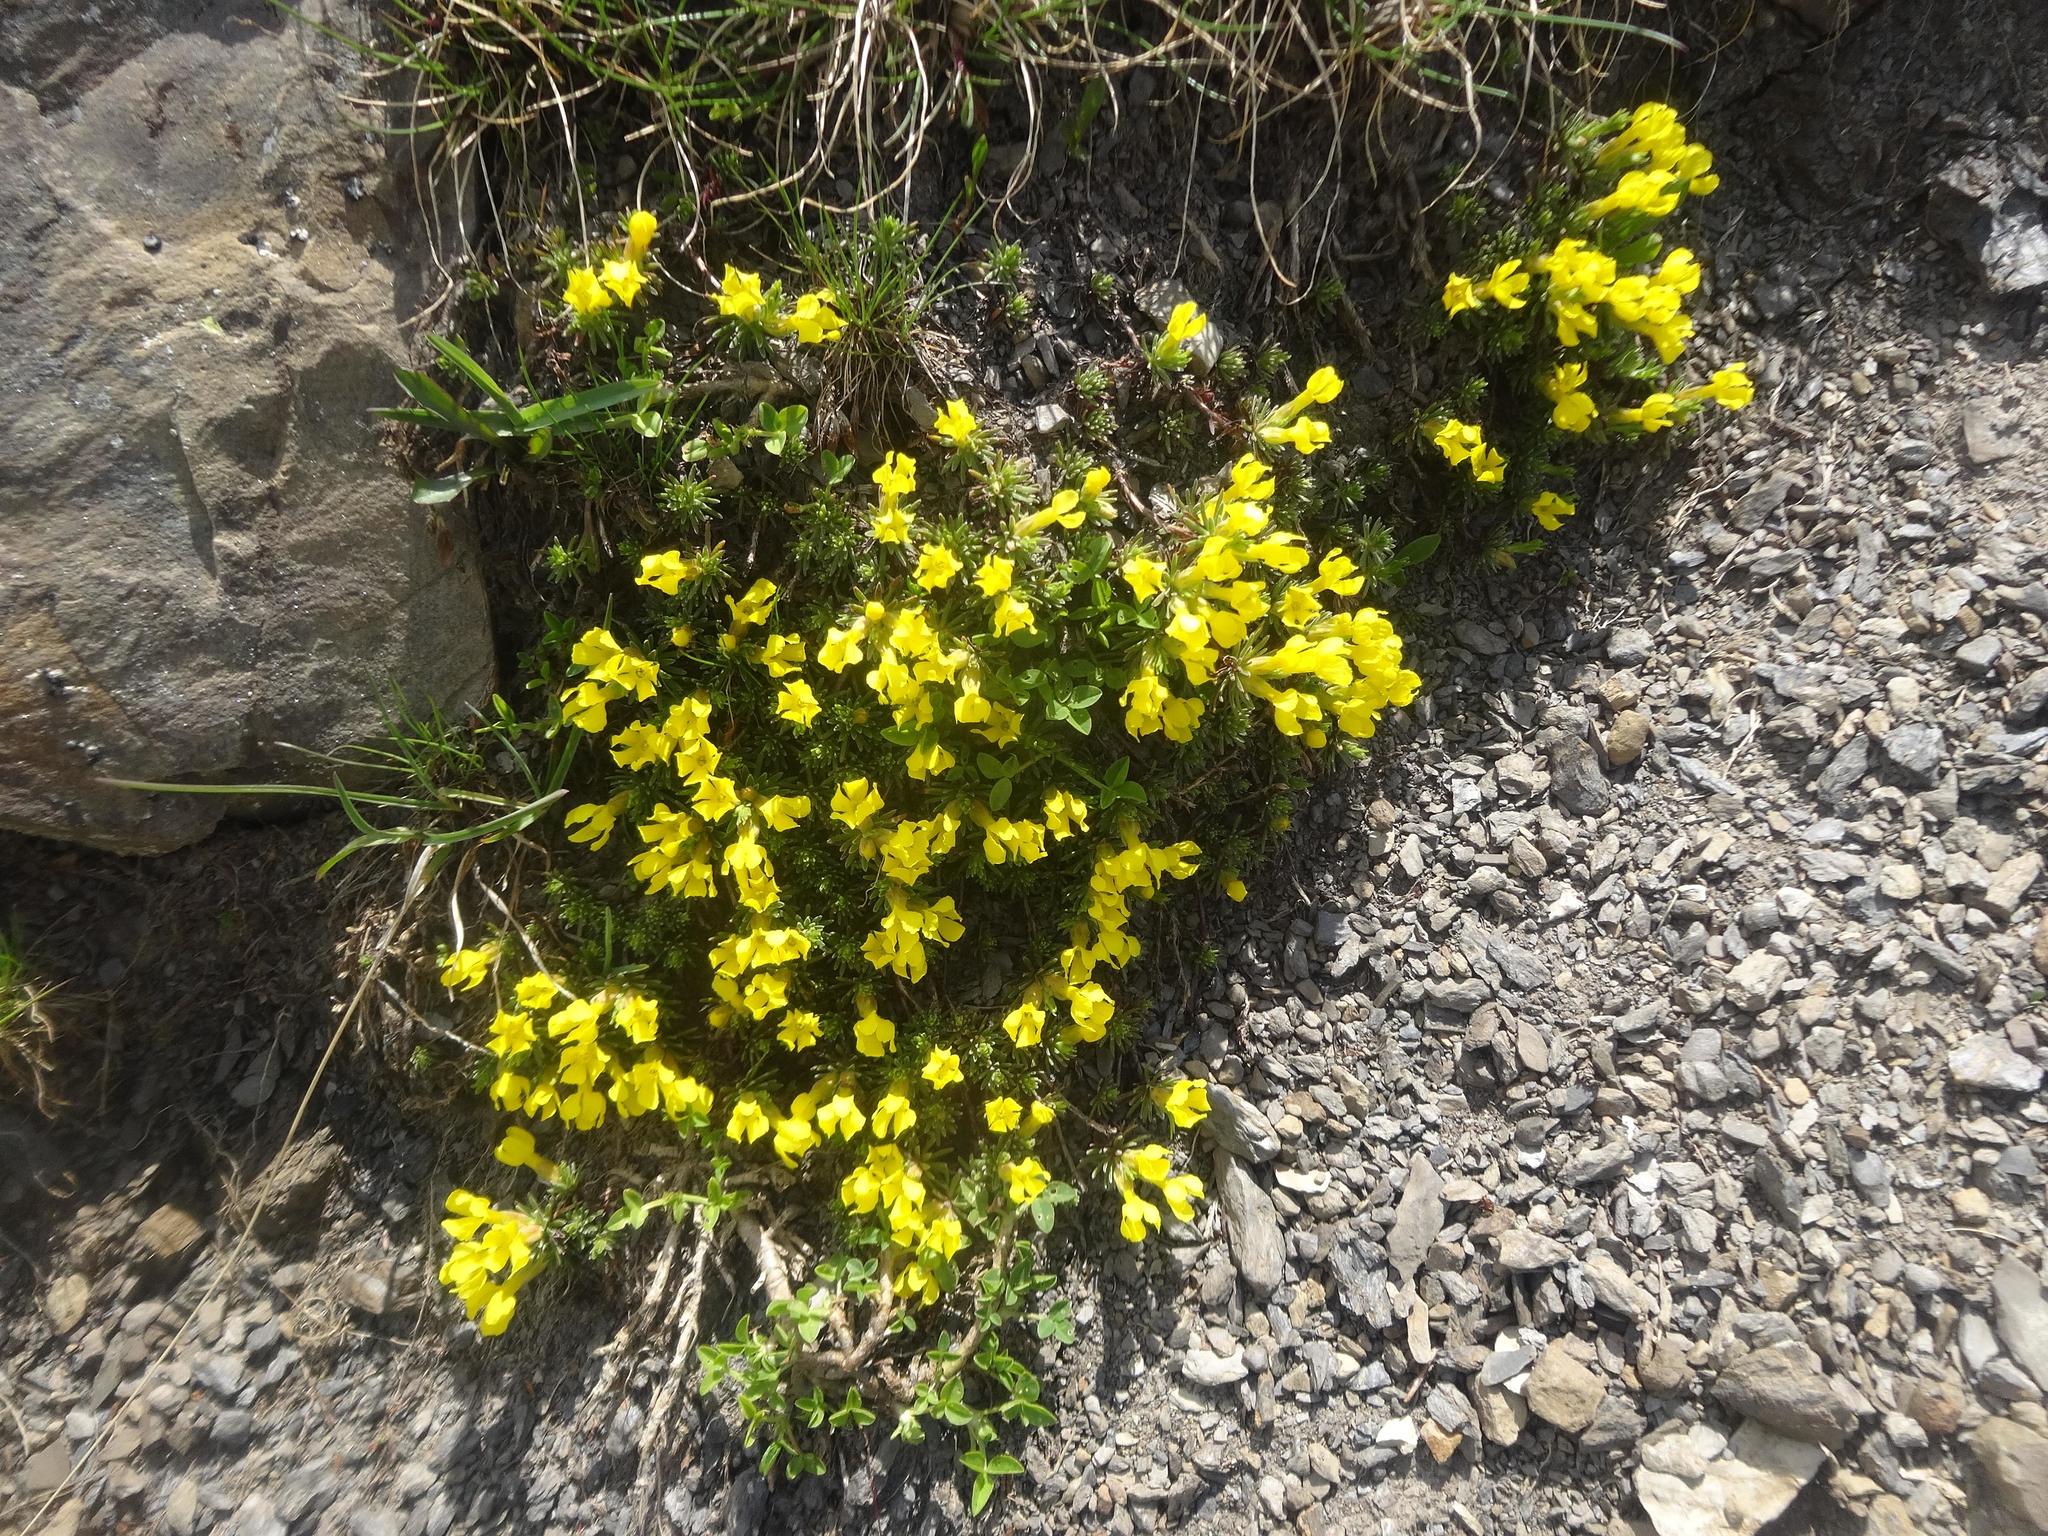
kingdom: Plantae
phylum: Tracheophyta
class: Magnoliopsida
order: Ericales
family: Primulaceae
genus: Androsace
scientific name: Androsace vitaliana
